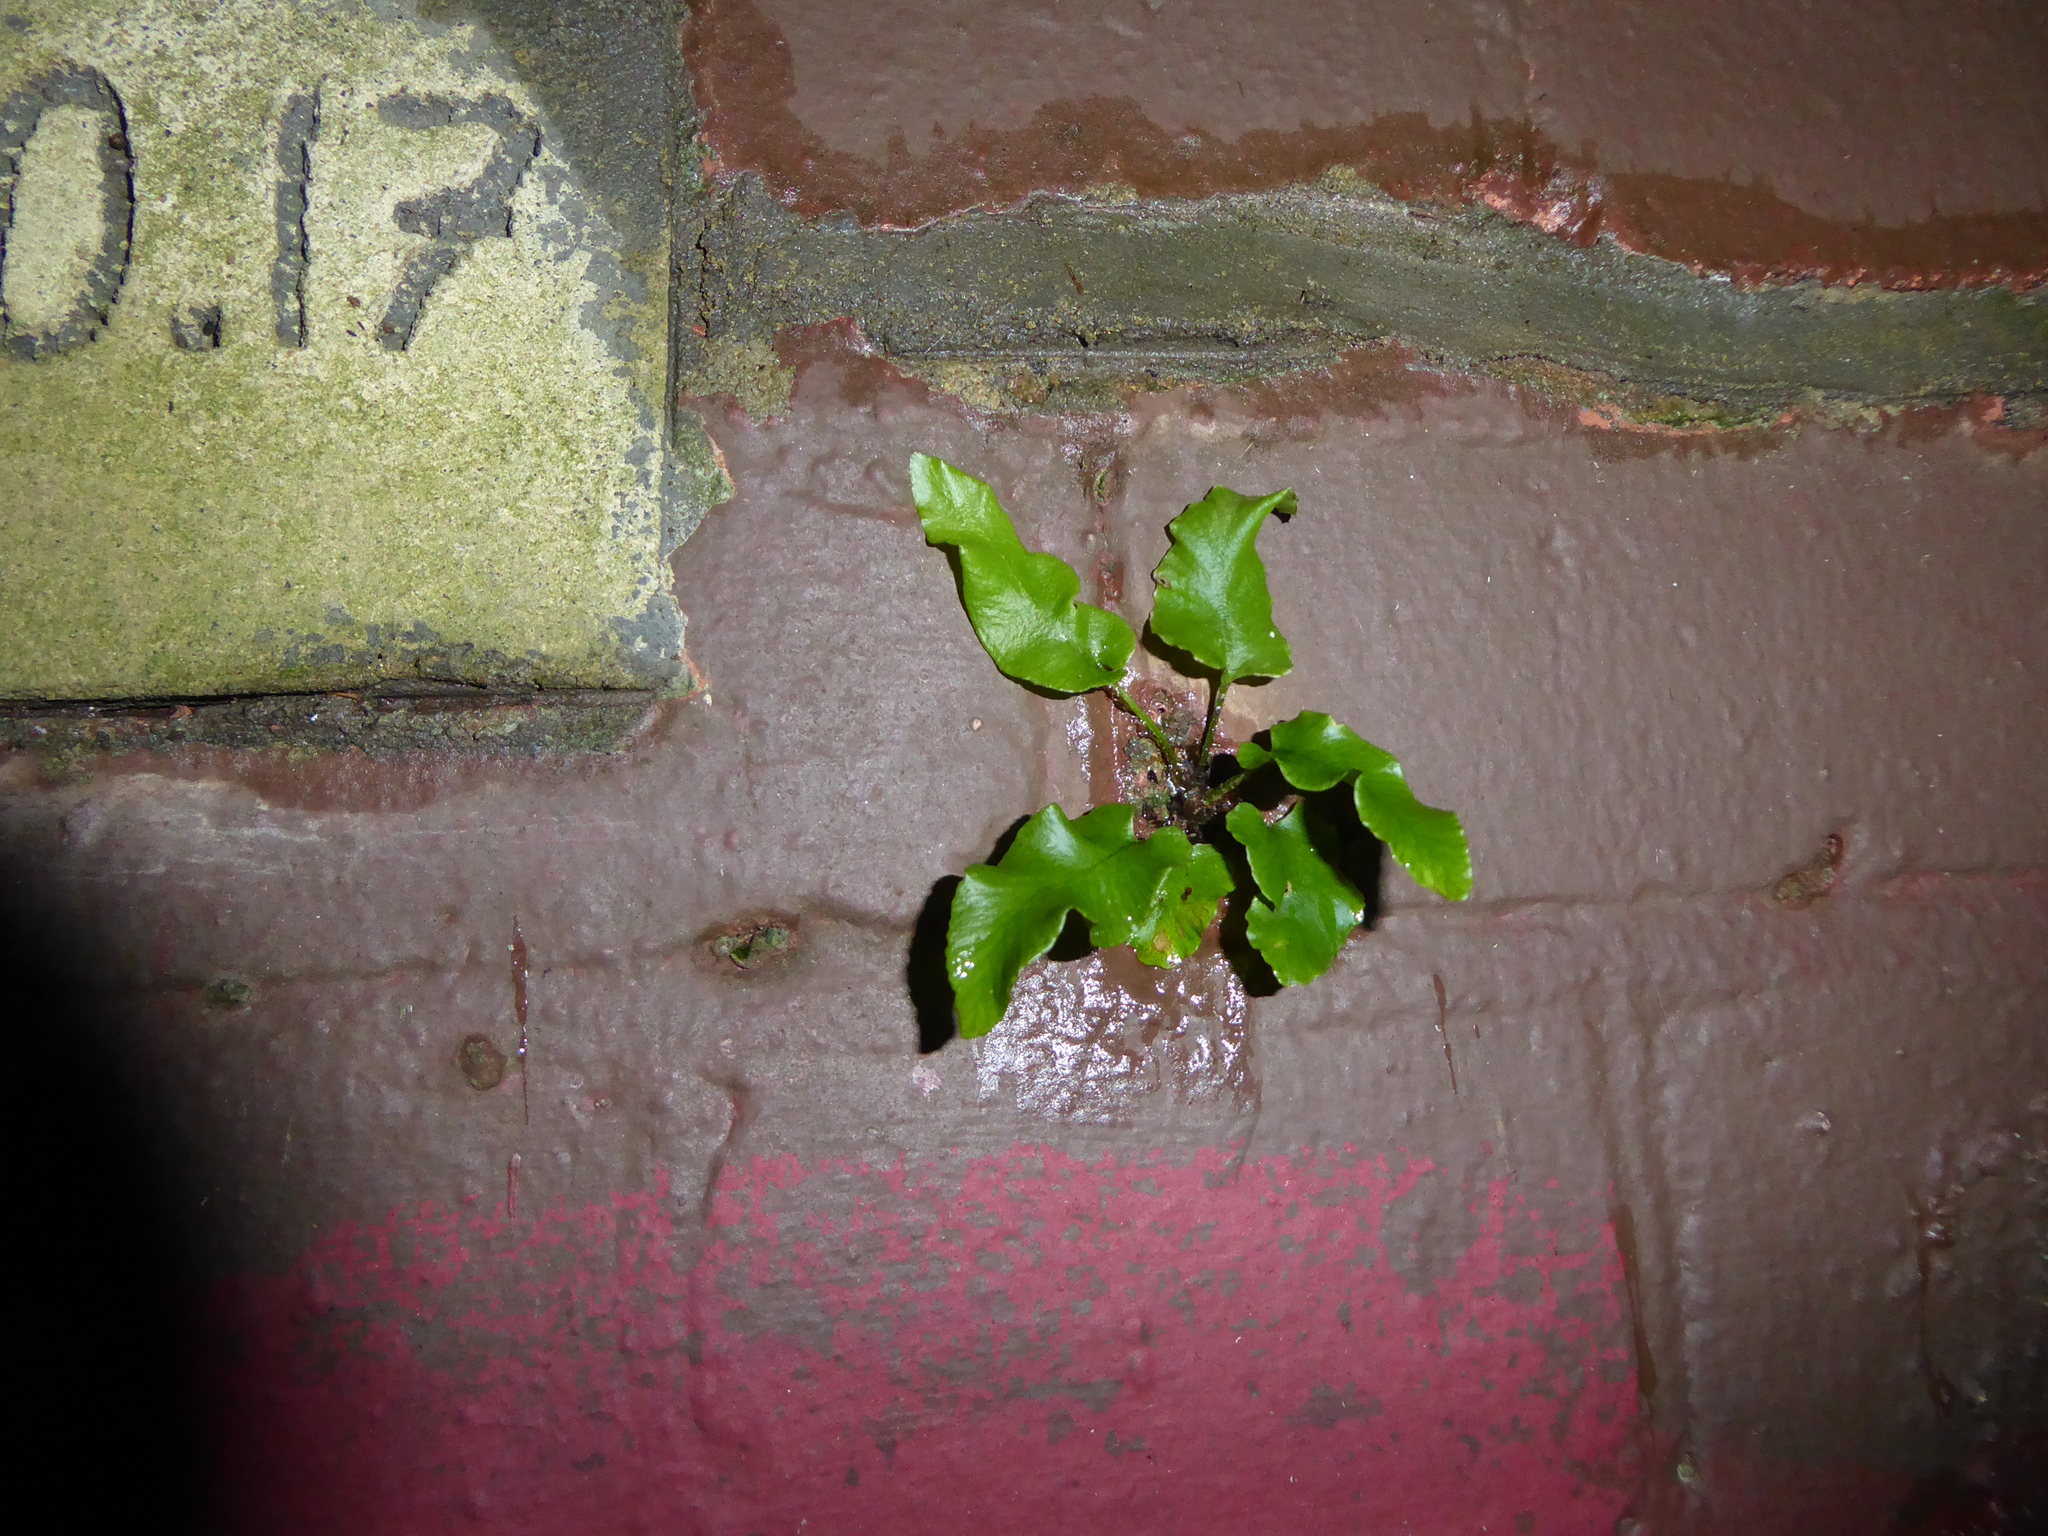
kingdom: Plantae
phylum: Tracheophyta
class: Polypodiopsida
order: Polypodiales
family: Aspleniaceae
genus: Asplenium
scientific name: Asplenium scolopendrium
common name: Hart's-tongue fern
